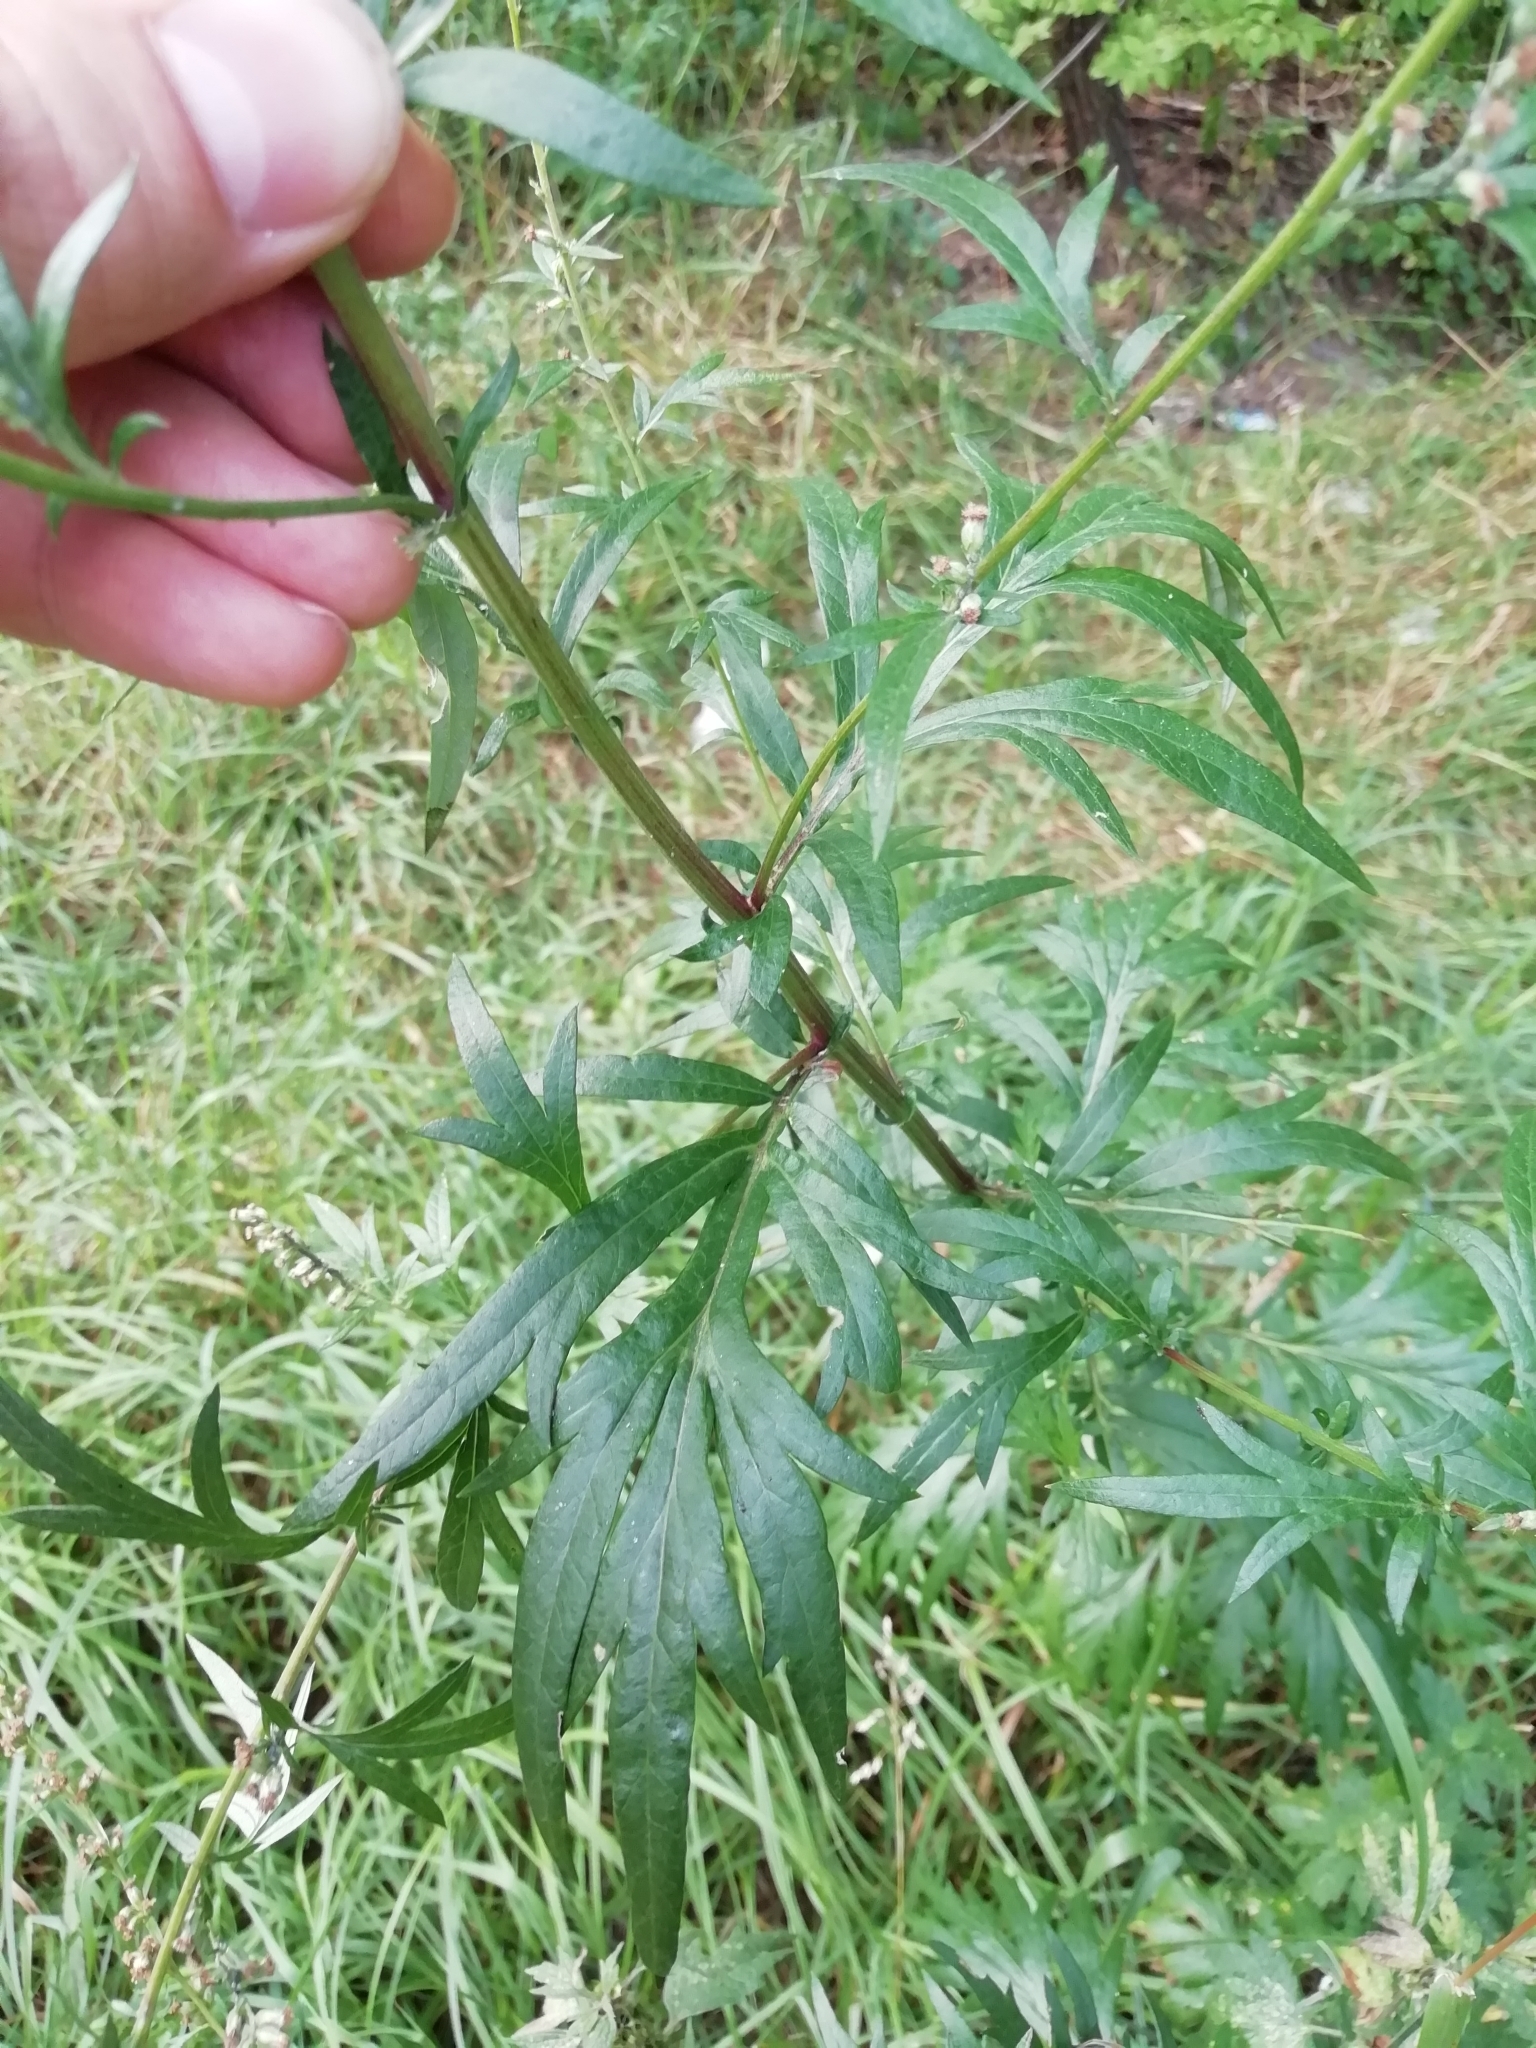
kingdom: Plantae
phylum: Tracheophyta
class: Magnoliopsida
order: Asterales
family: Asteraceae
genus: Artemisia
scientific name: Artemisia vulgaris
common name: Mugwort
